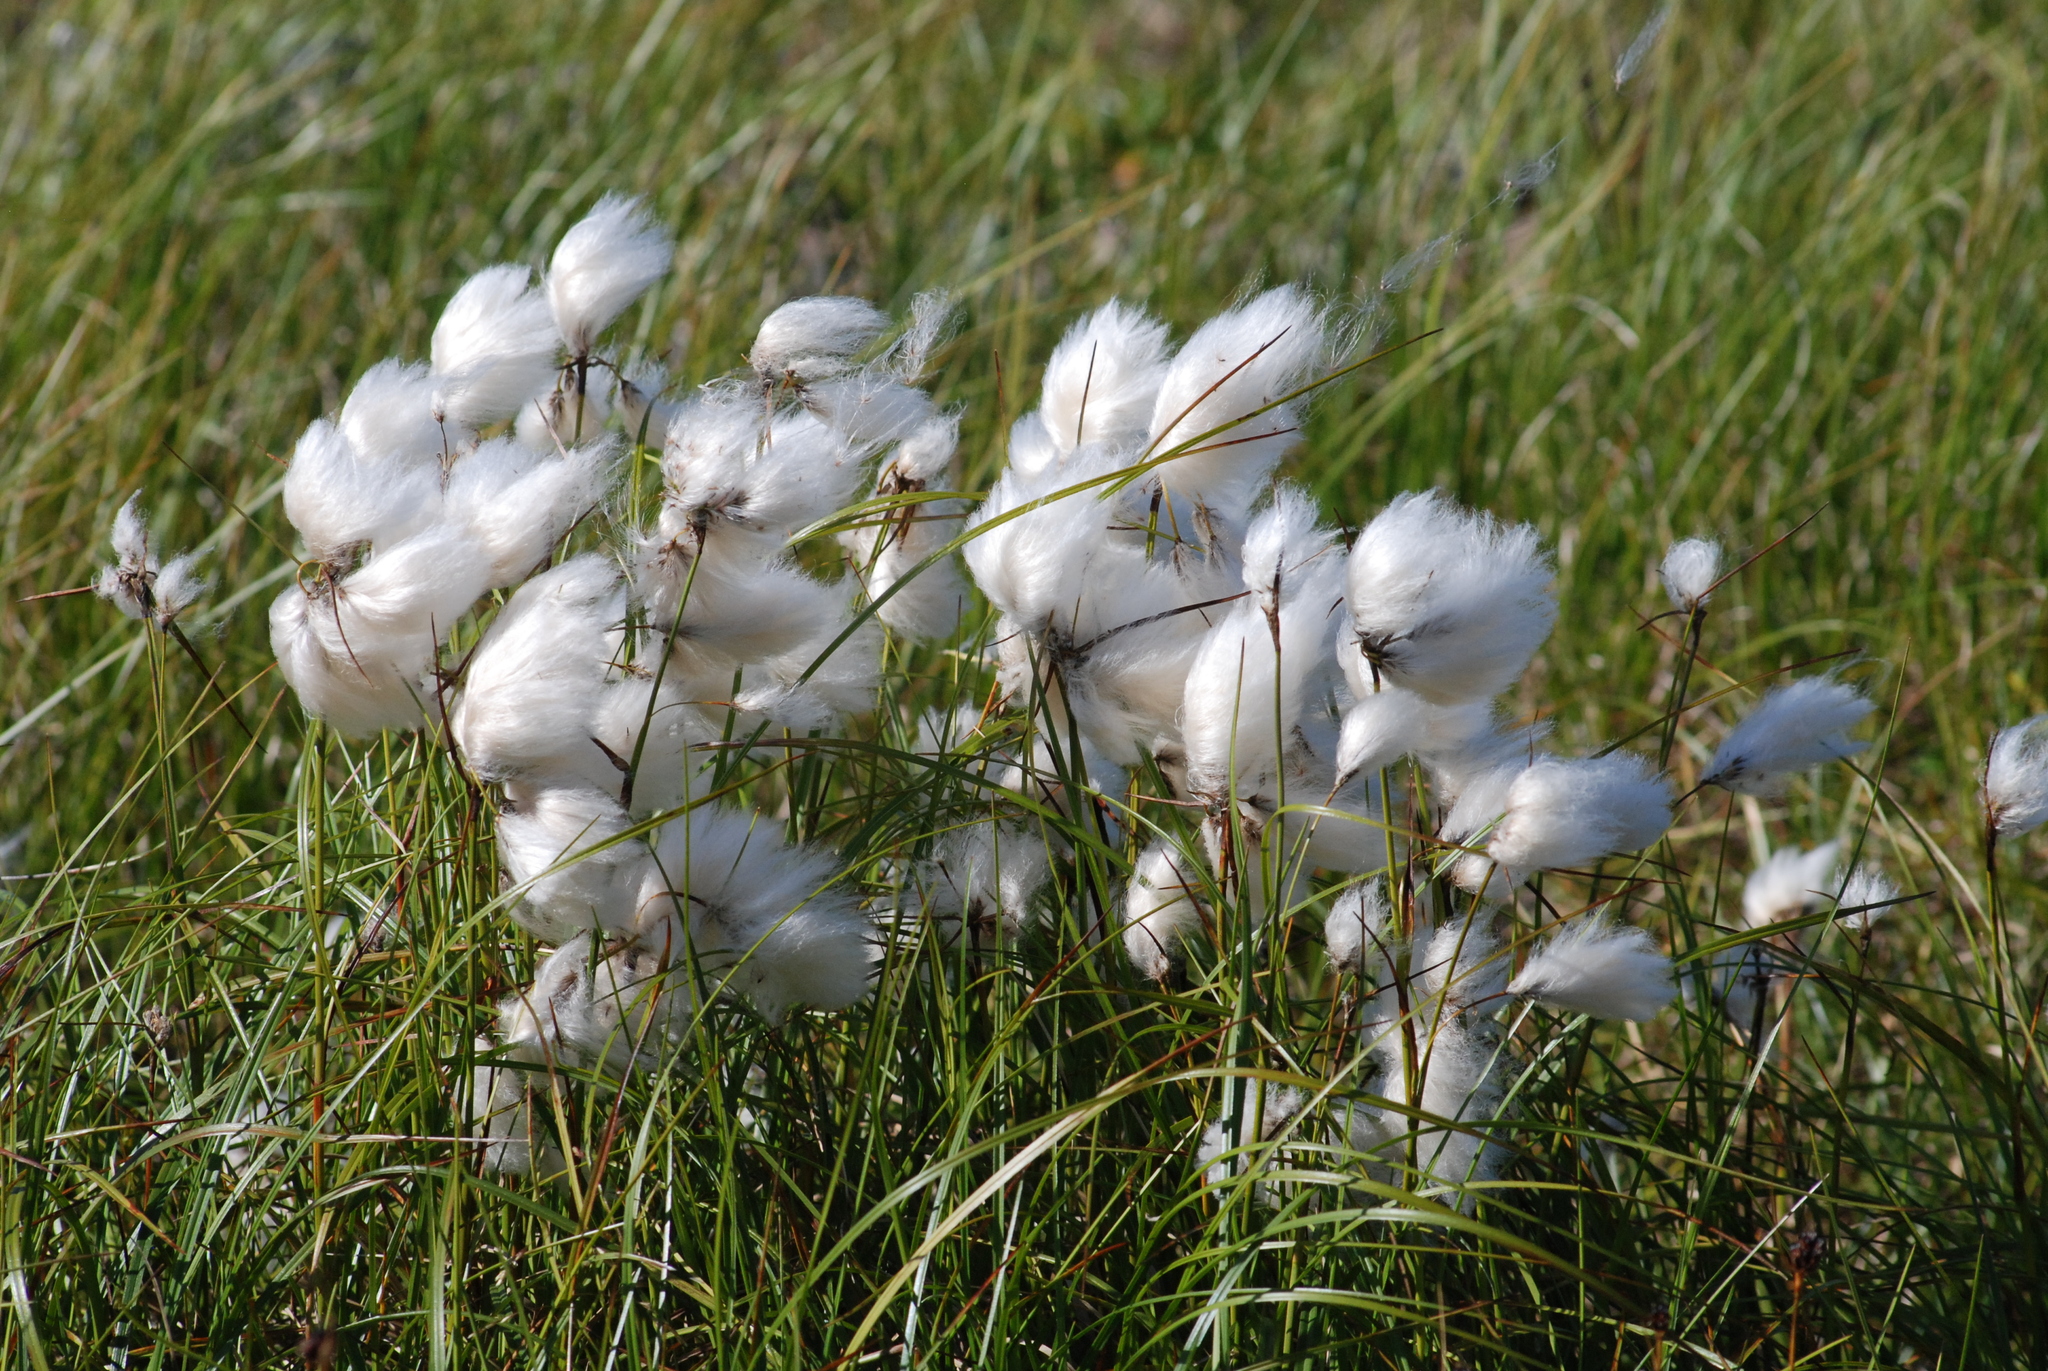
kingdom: Plantae
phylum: Tracheophyta
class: Liliopsida
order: Poales
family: Cyperaceae
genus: Eriophorum
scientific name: Eriophorum angustifolium
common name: Common cottongrass
